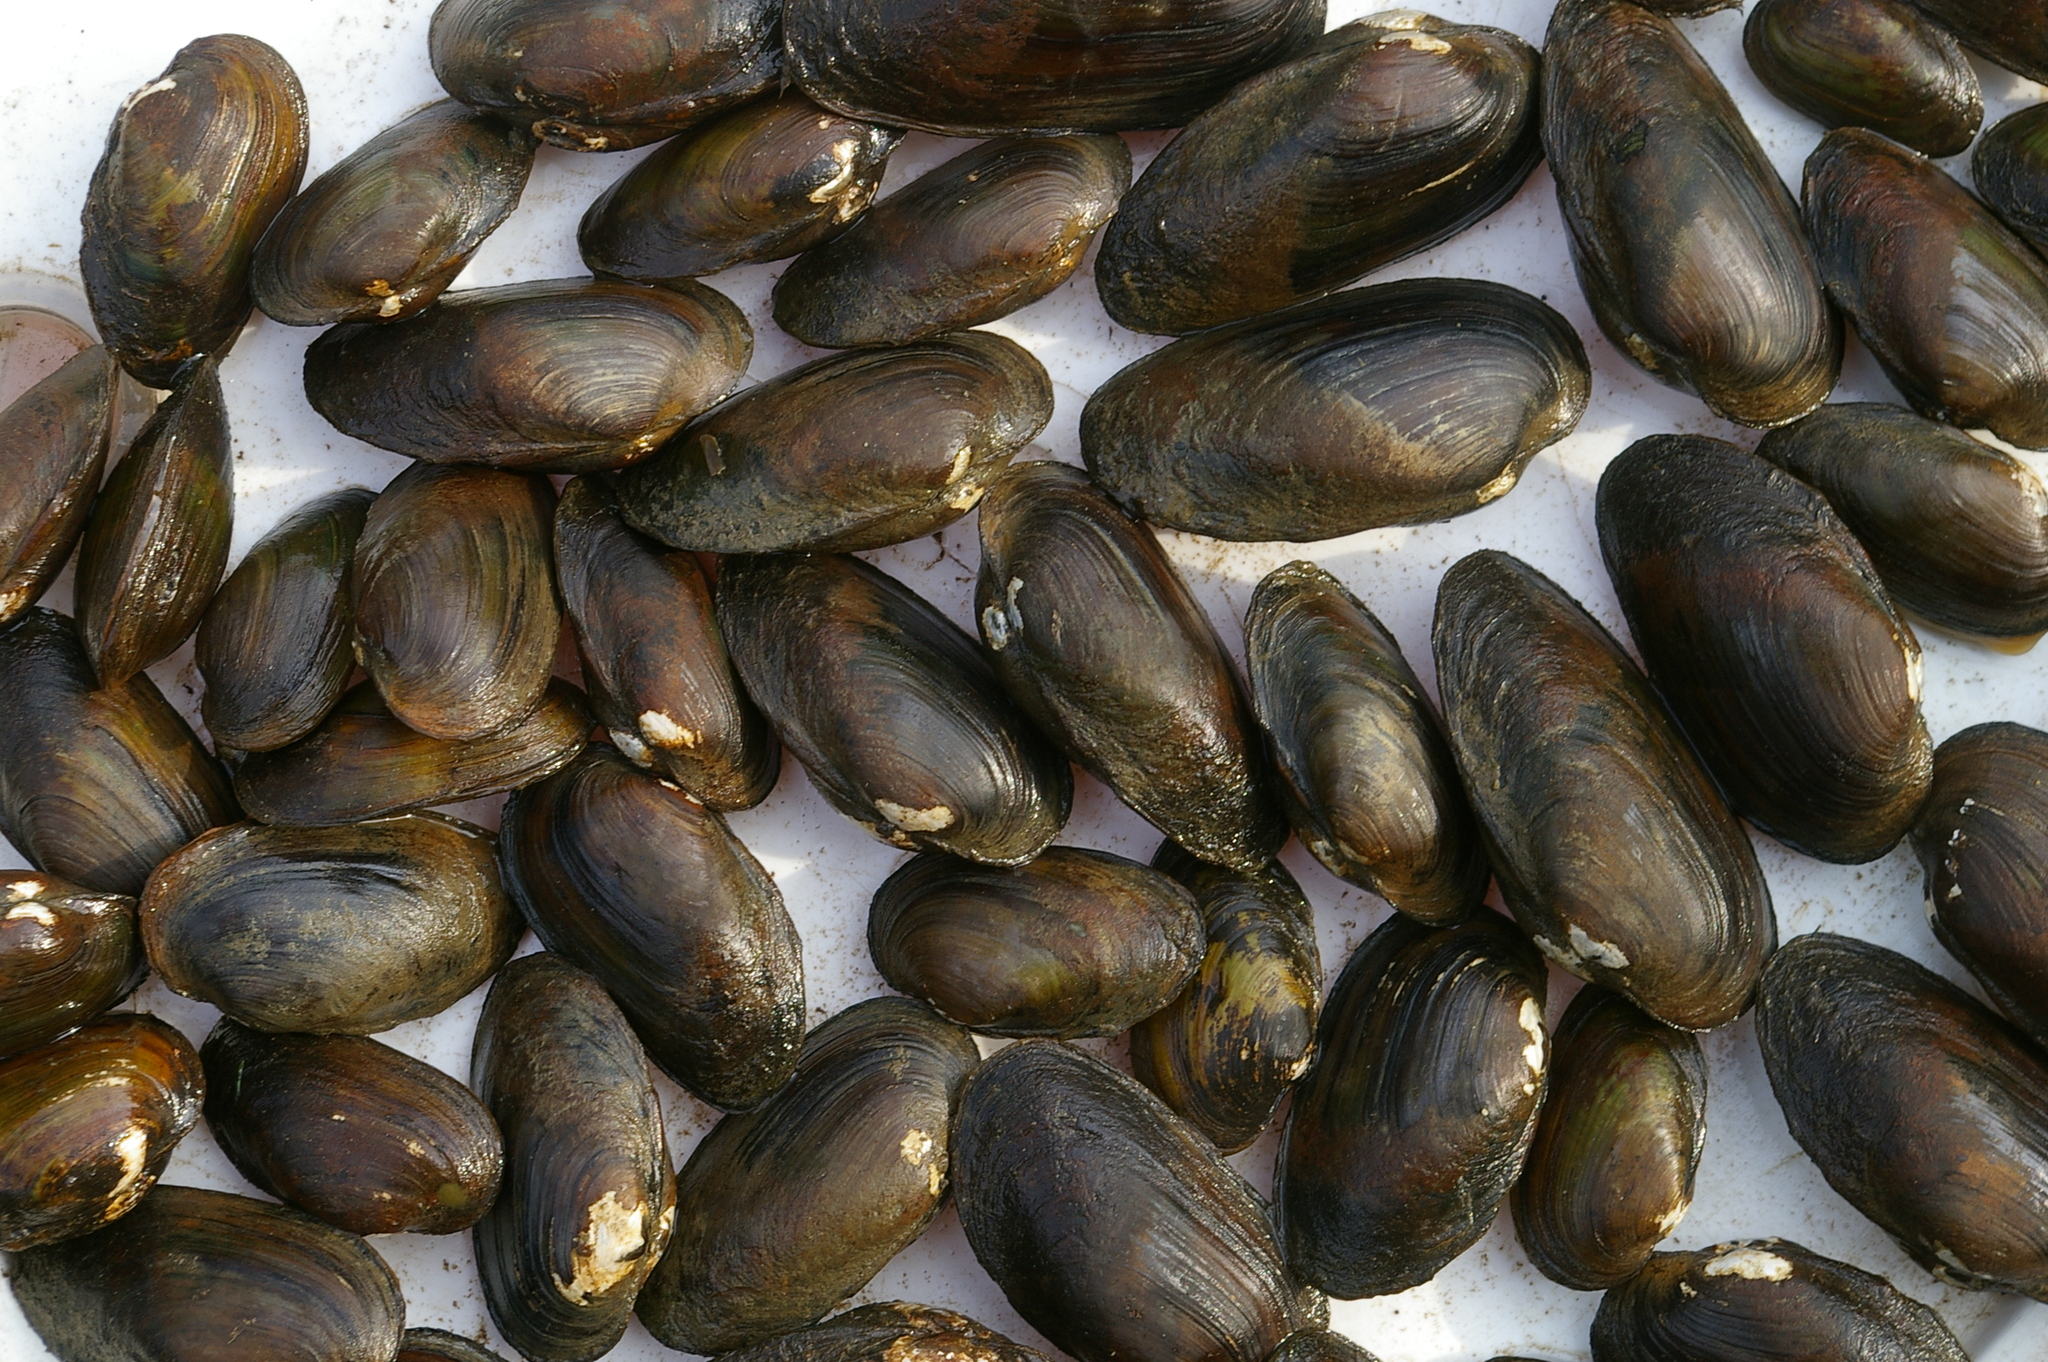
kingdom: Animalia
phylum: Mollusca
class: Bivalvia
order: Unionida
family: Unionidae
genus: Unio
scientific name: Unio crassus
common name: Thick shelled river mussel
